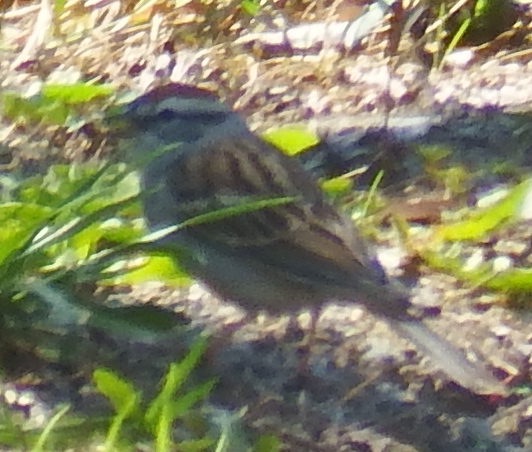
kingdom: Animalia
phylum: Chordata
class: Aves
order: Passeriformes
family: Passerellidae
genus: Spizella
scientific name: Spizella passerina
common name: Chipping sparrow
